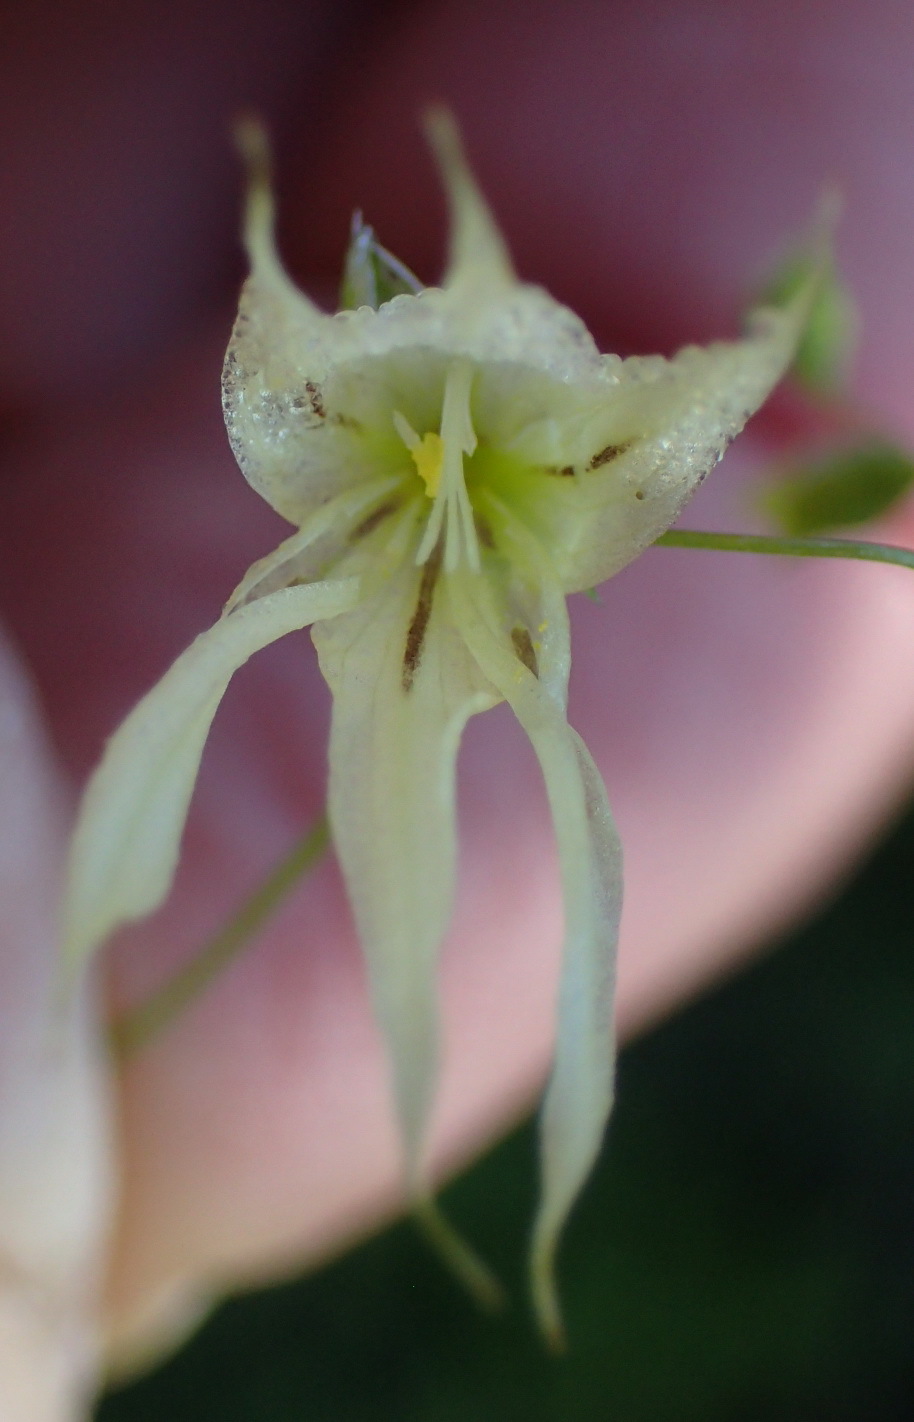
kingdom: Plantae
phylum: Tracheophyta
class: Liliopsida
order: Asparagales
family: Iridaceae
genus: Melasphaerula
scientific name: Melasphaerula graminea
